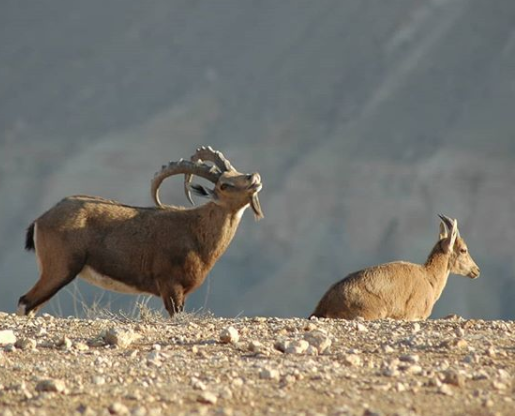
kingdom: Animalia
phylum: Chordata
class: Mammalia
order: Artiodactyla
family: Bovidae
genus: Capra
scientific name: Capra nubiana
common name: Nubian ibex
